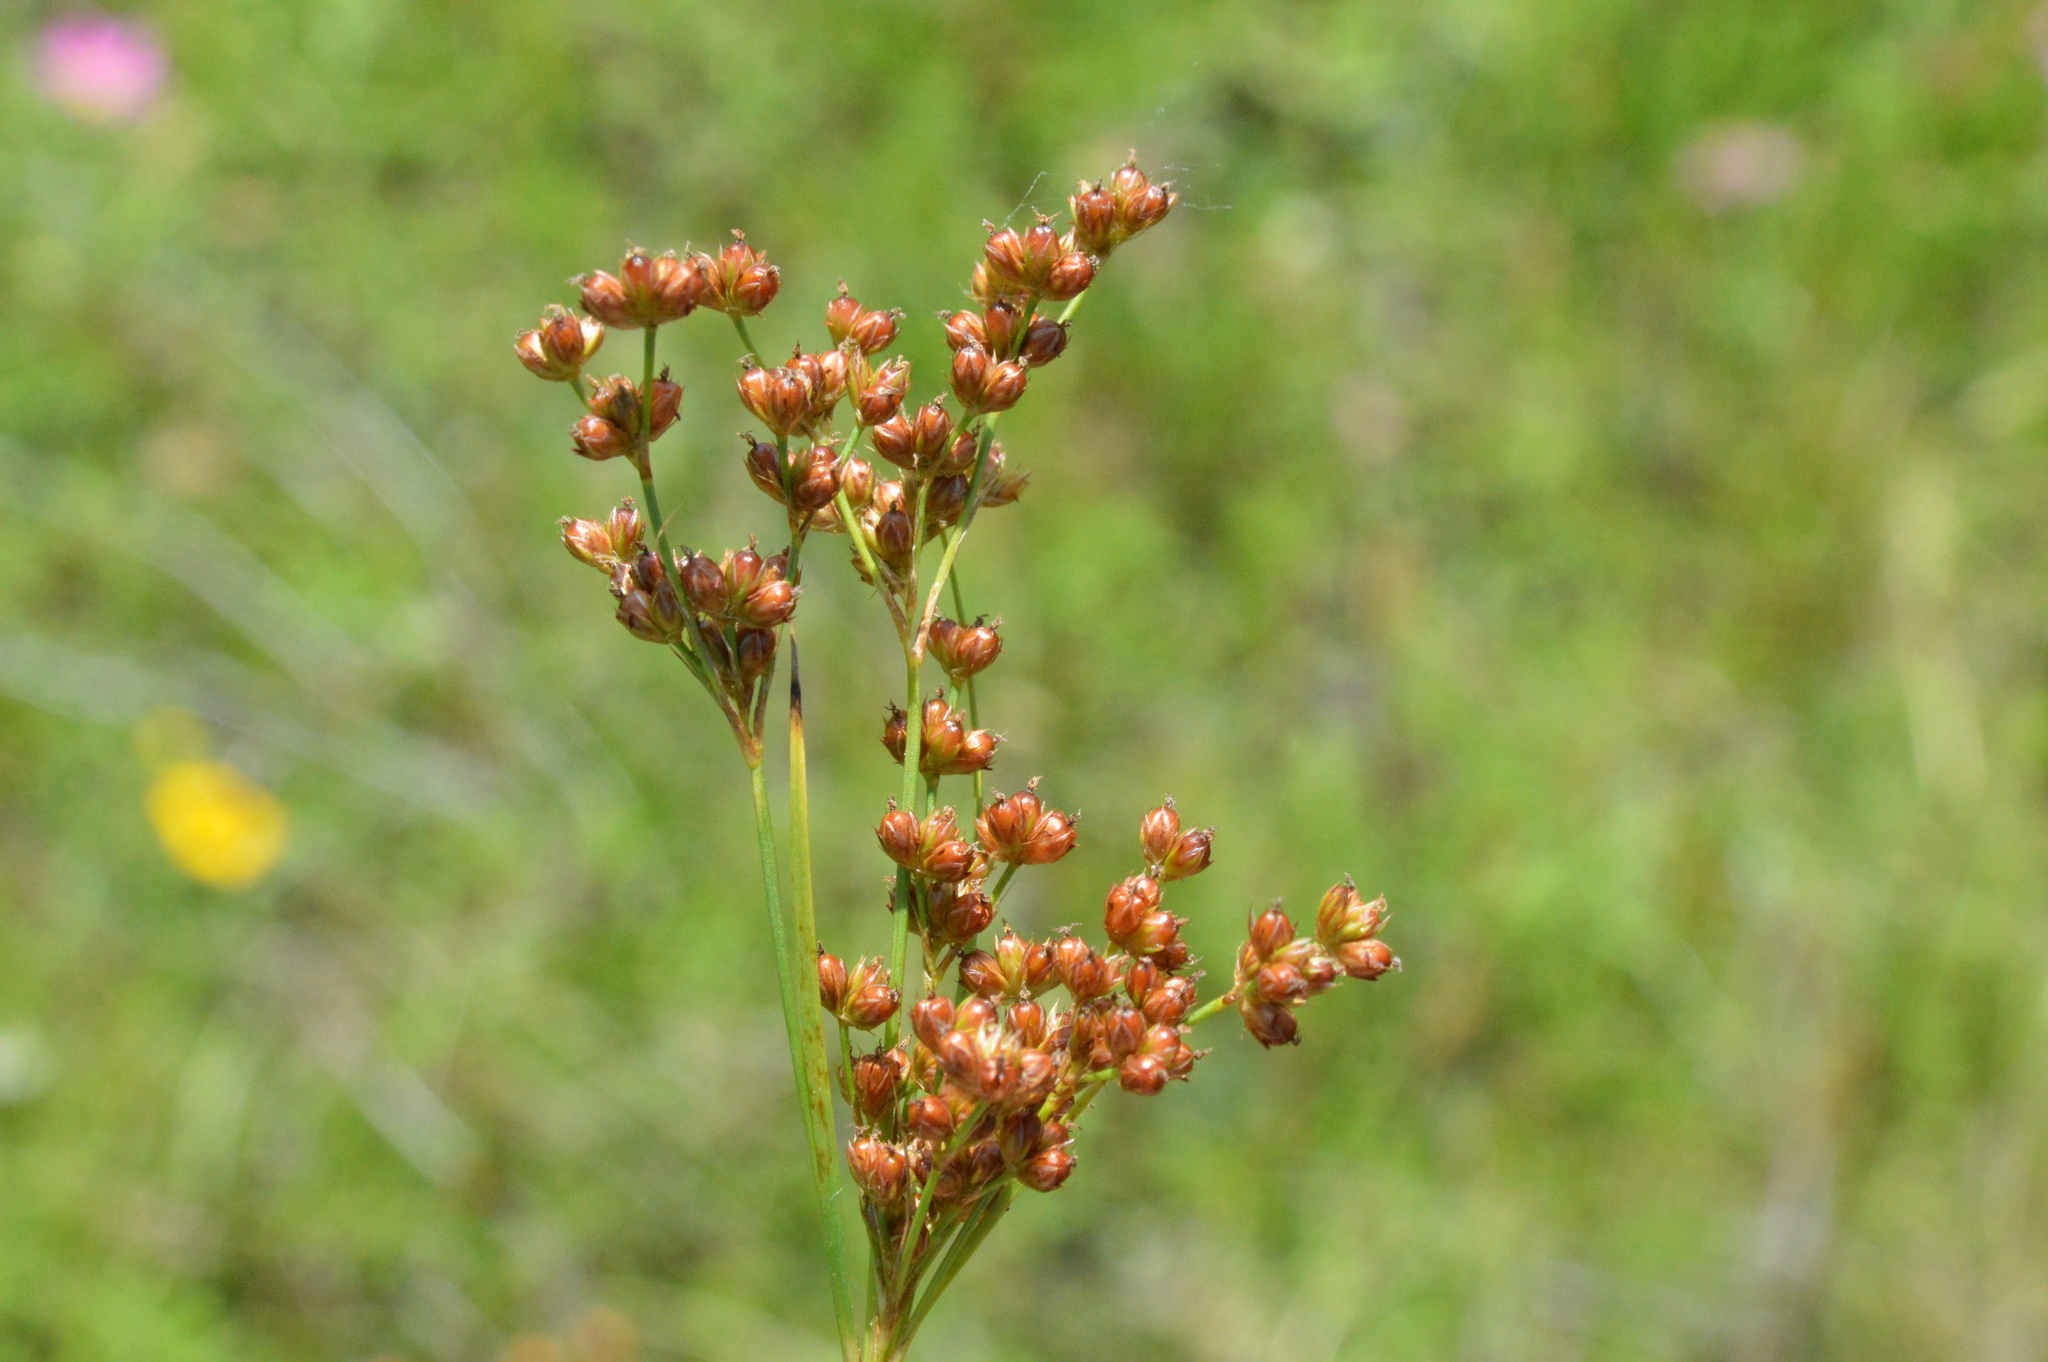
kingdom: Plantae
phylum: Tracheophyta
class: Liliopsida
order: Poales
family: Juncaceae
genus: Juncus
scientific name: Juncus marginatus
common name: Grass-leaf rush
